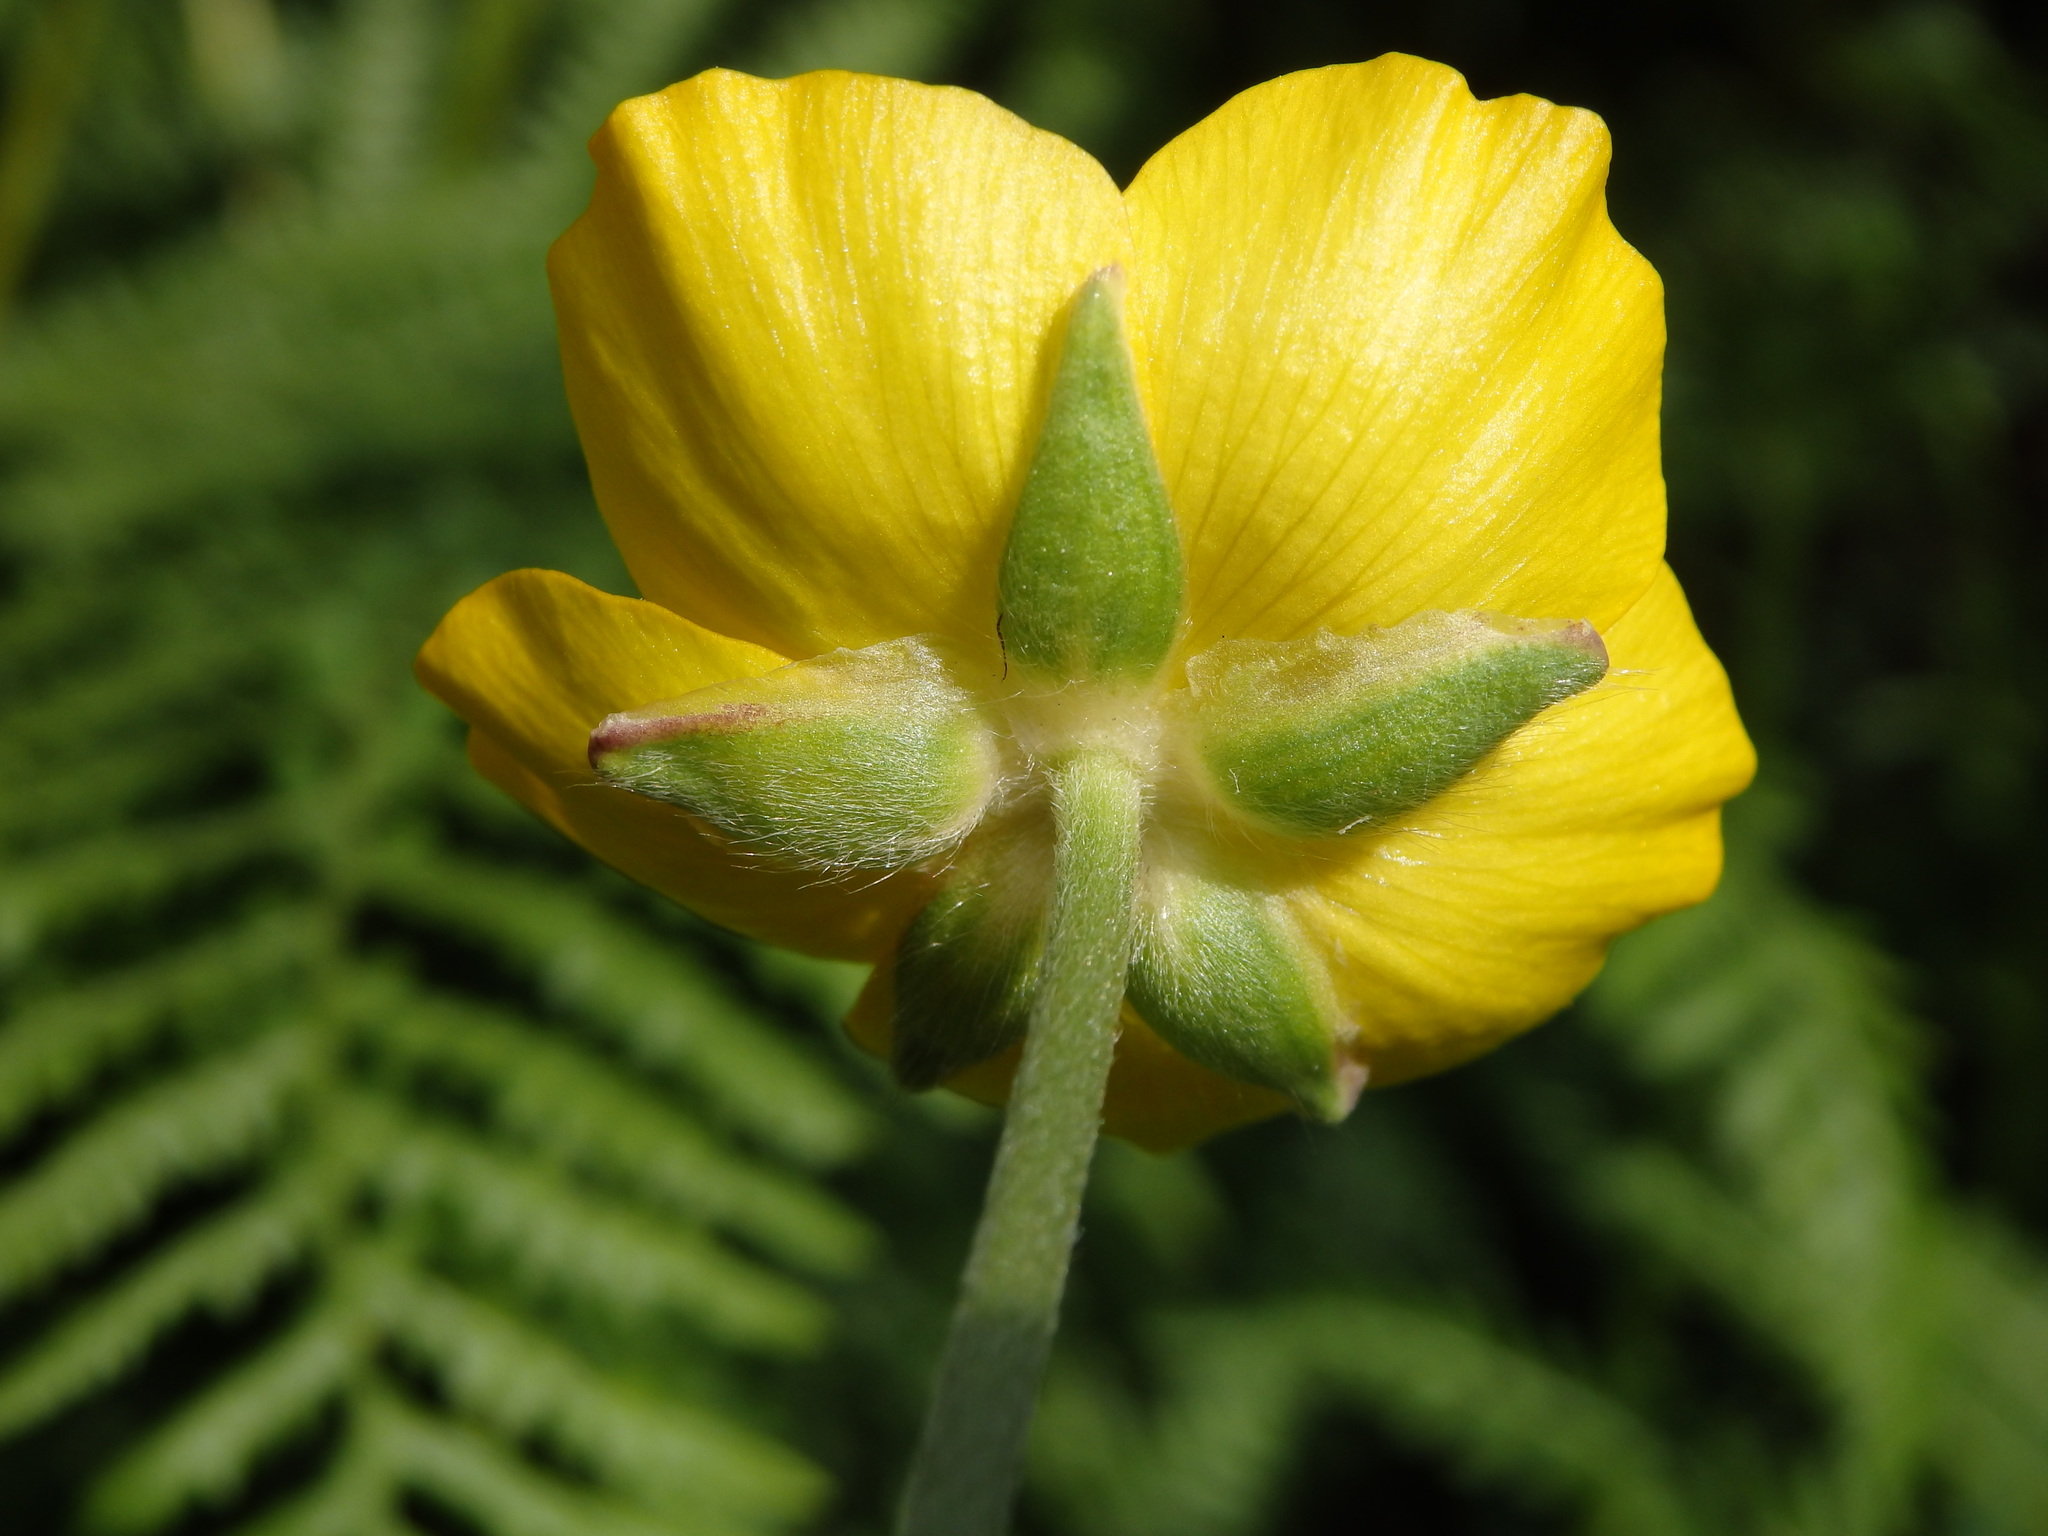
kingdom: Plantae
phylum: Tracheophyta
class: Magnoliopsida
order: Ranunculales
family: Ranunculaceae
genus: Ranunculus
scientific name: Ranunculus paludosus
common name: Jersey buttercup
